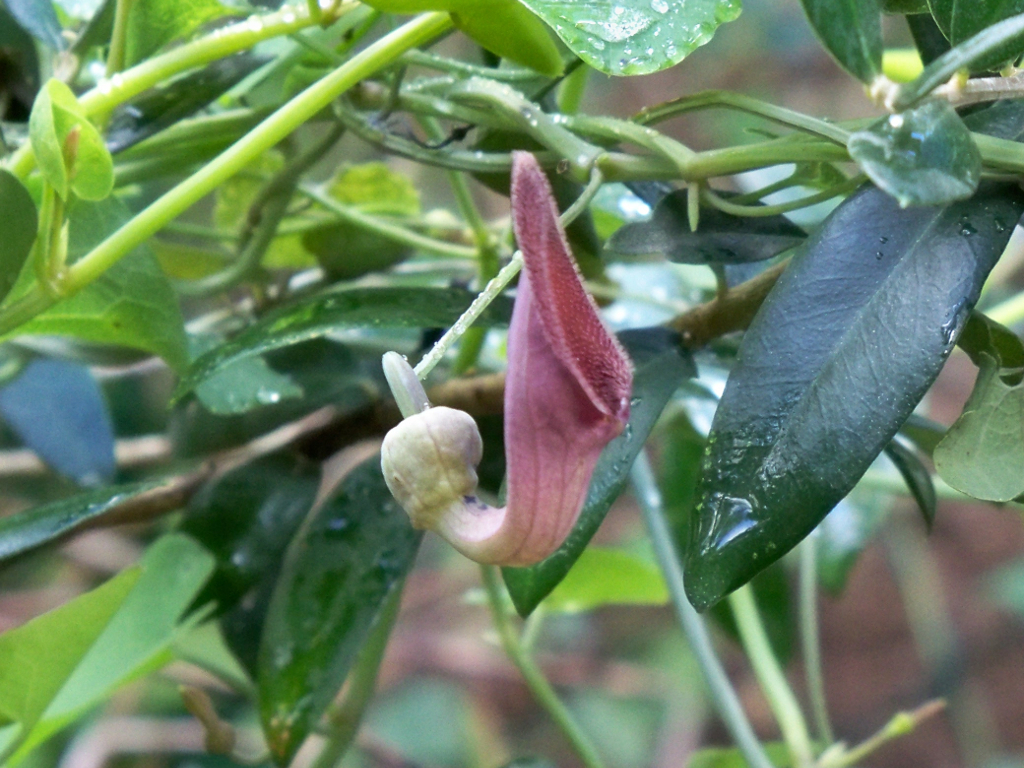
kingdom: Plantae
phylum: Tracheophyta
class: Magnoliopsida
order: Piperales
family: Aristolochiaceae
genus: Aristolochia
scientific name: Aristolochia baetica
